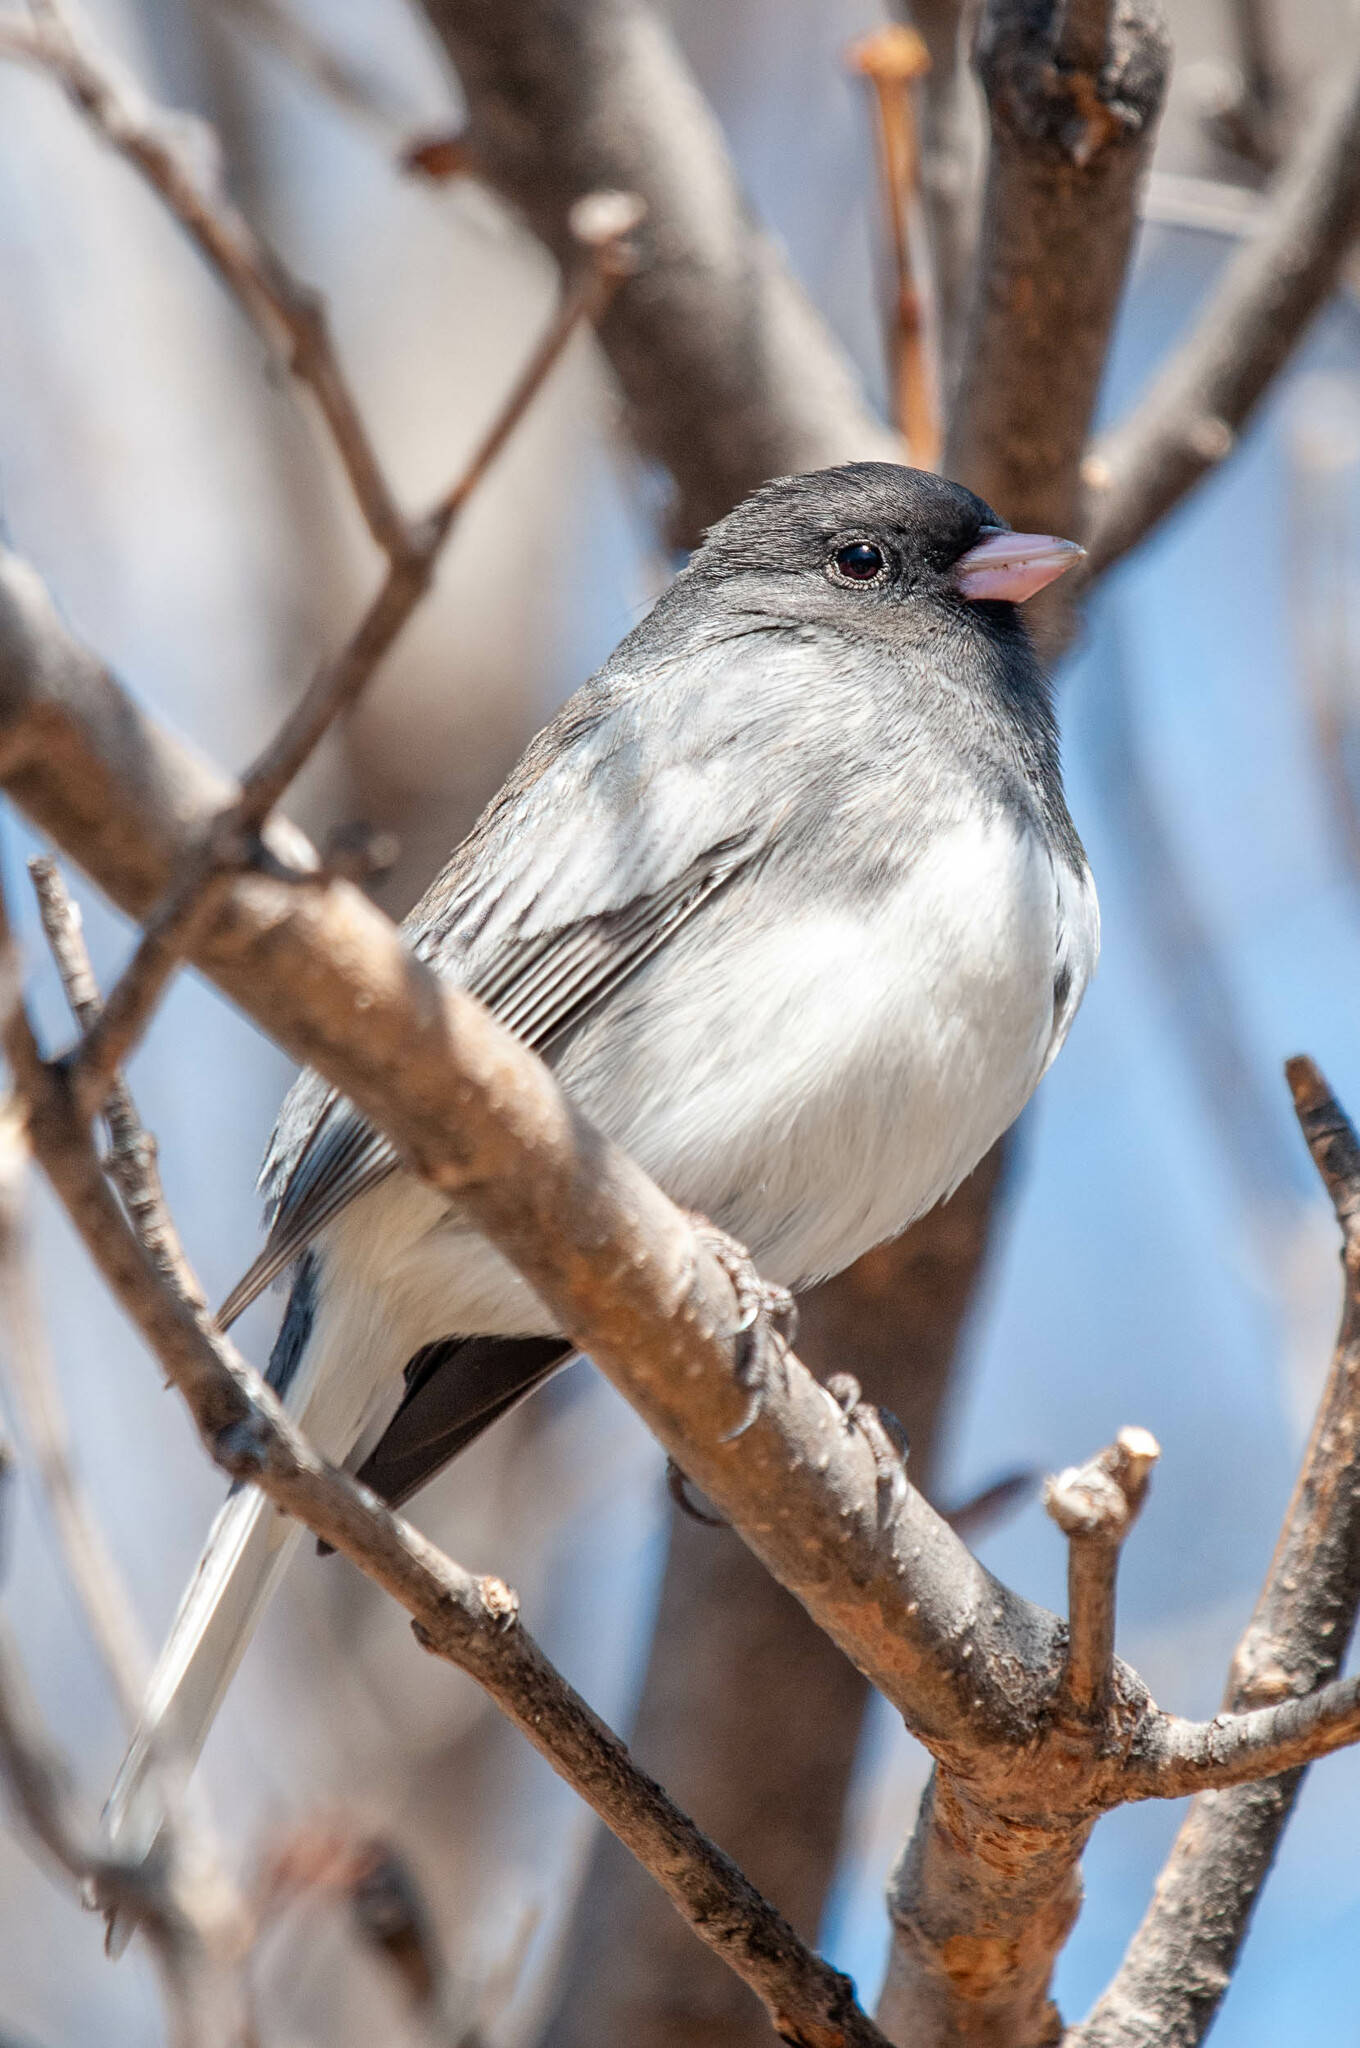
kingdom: Animalia
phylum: Chordata
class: Aves
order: Passeriformes
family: Passerellidae
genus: Junco
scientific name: Junco hyemalis
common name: Dark-eyed junco
